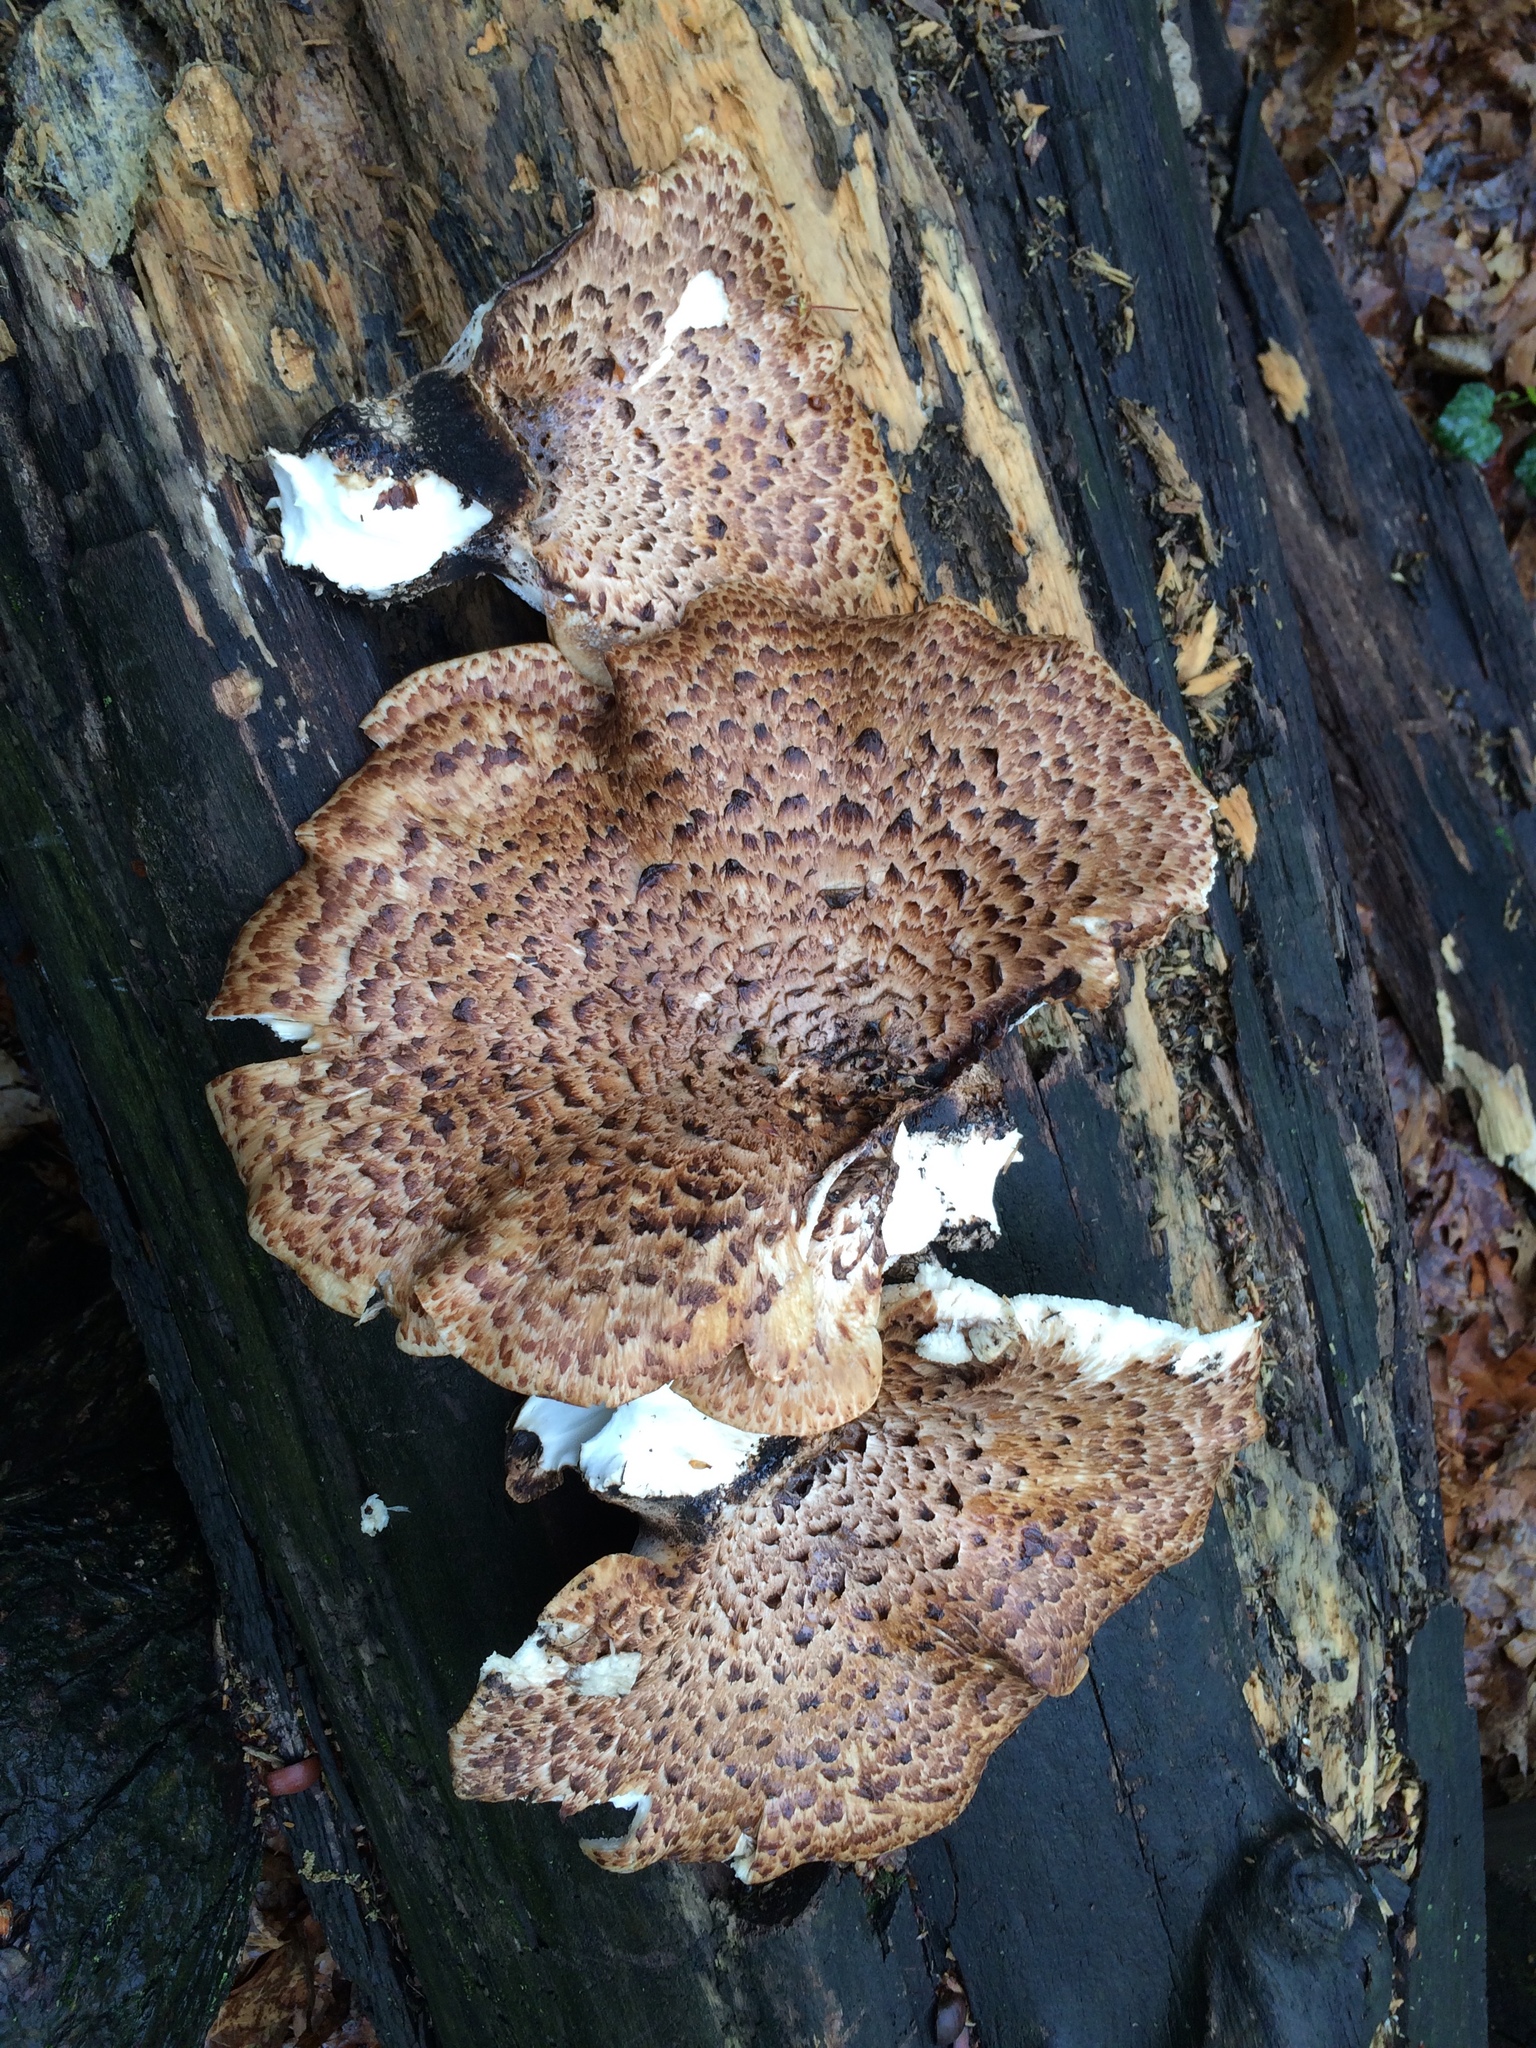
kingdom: Fungi
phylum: Basidiomycota
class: Agaricomycetes
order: Polyporales
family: Polyporaceae
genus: Cerioporus
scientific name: Cerioporus squamosus
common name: Dryad's saddle
